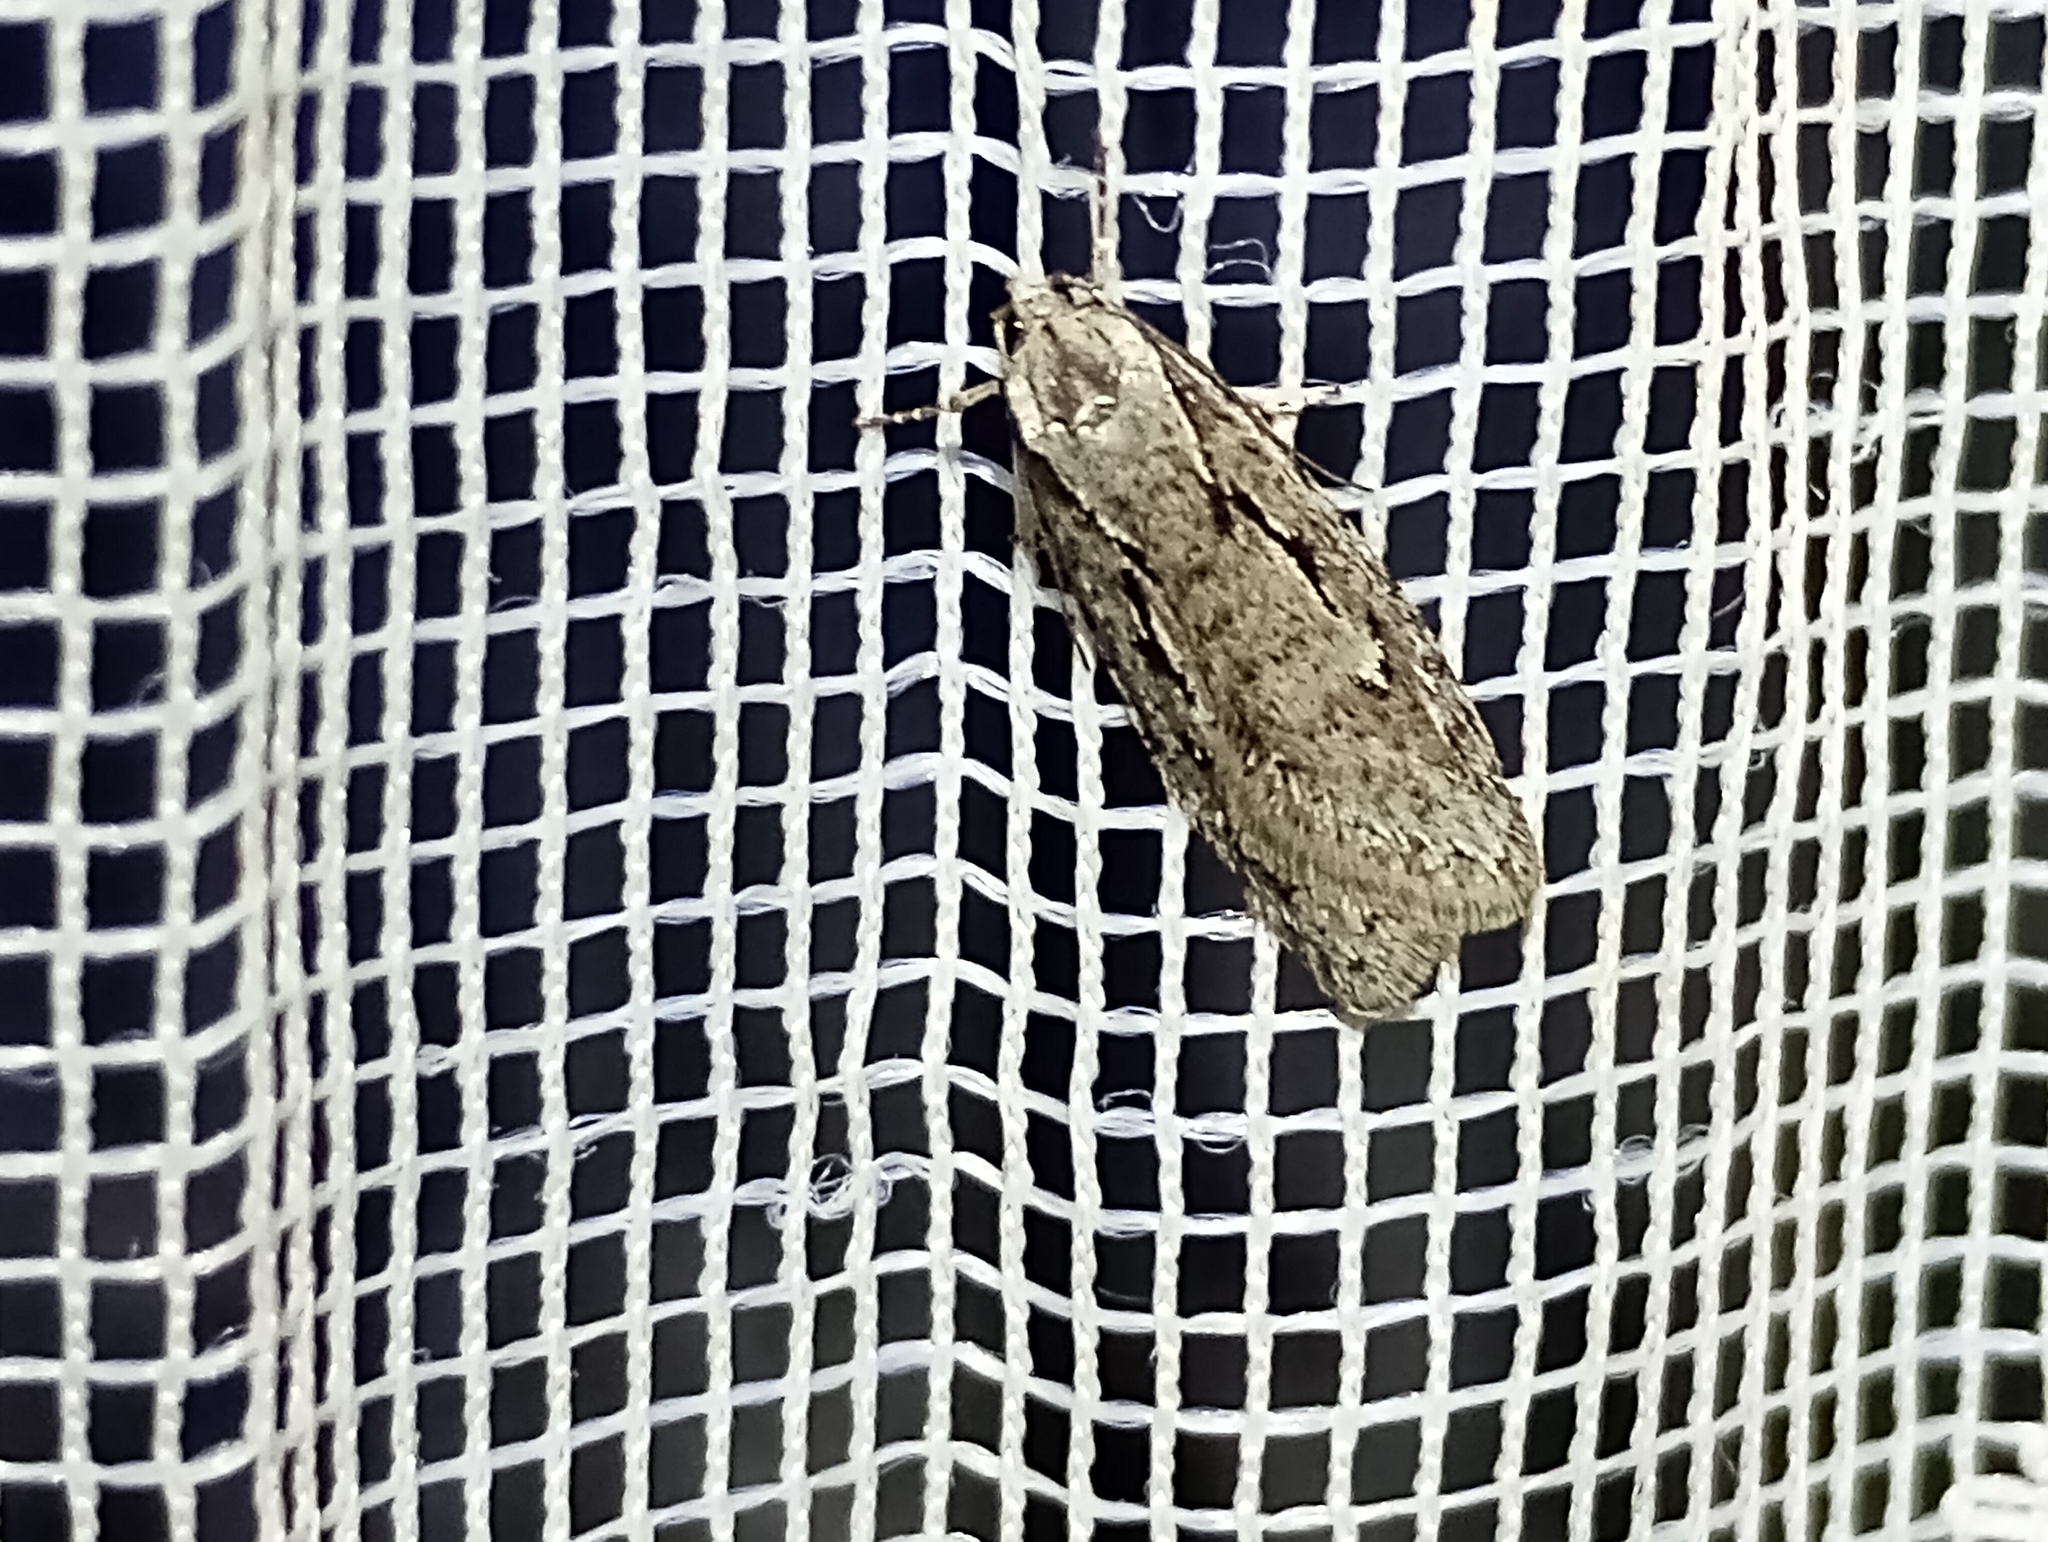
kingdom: Animalia
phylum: Arthropoda
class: Insecta
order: Lepidoptera
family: Depressariidae
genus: Semioscopis
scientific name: Semioscopis avellanella
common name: Early flat-body
